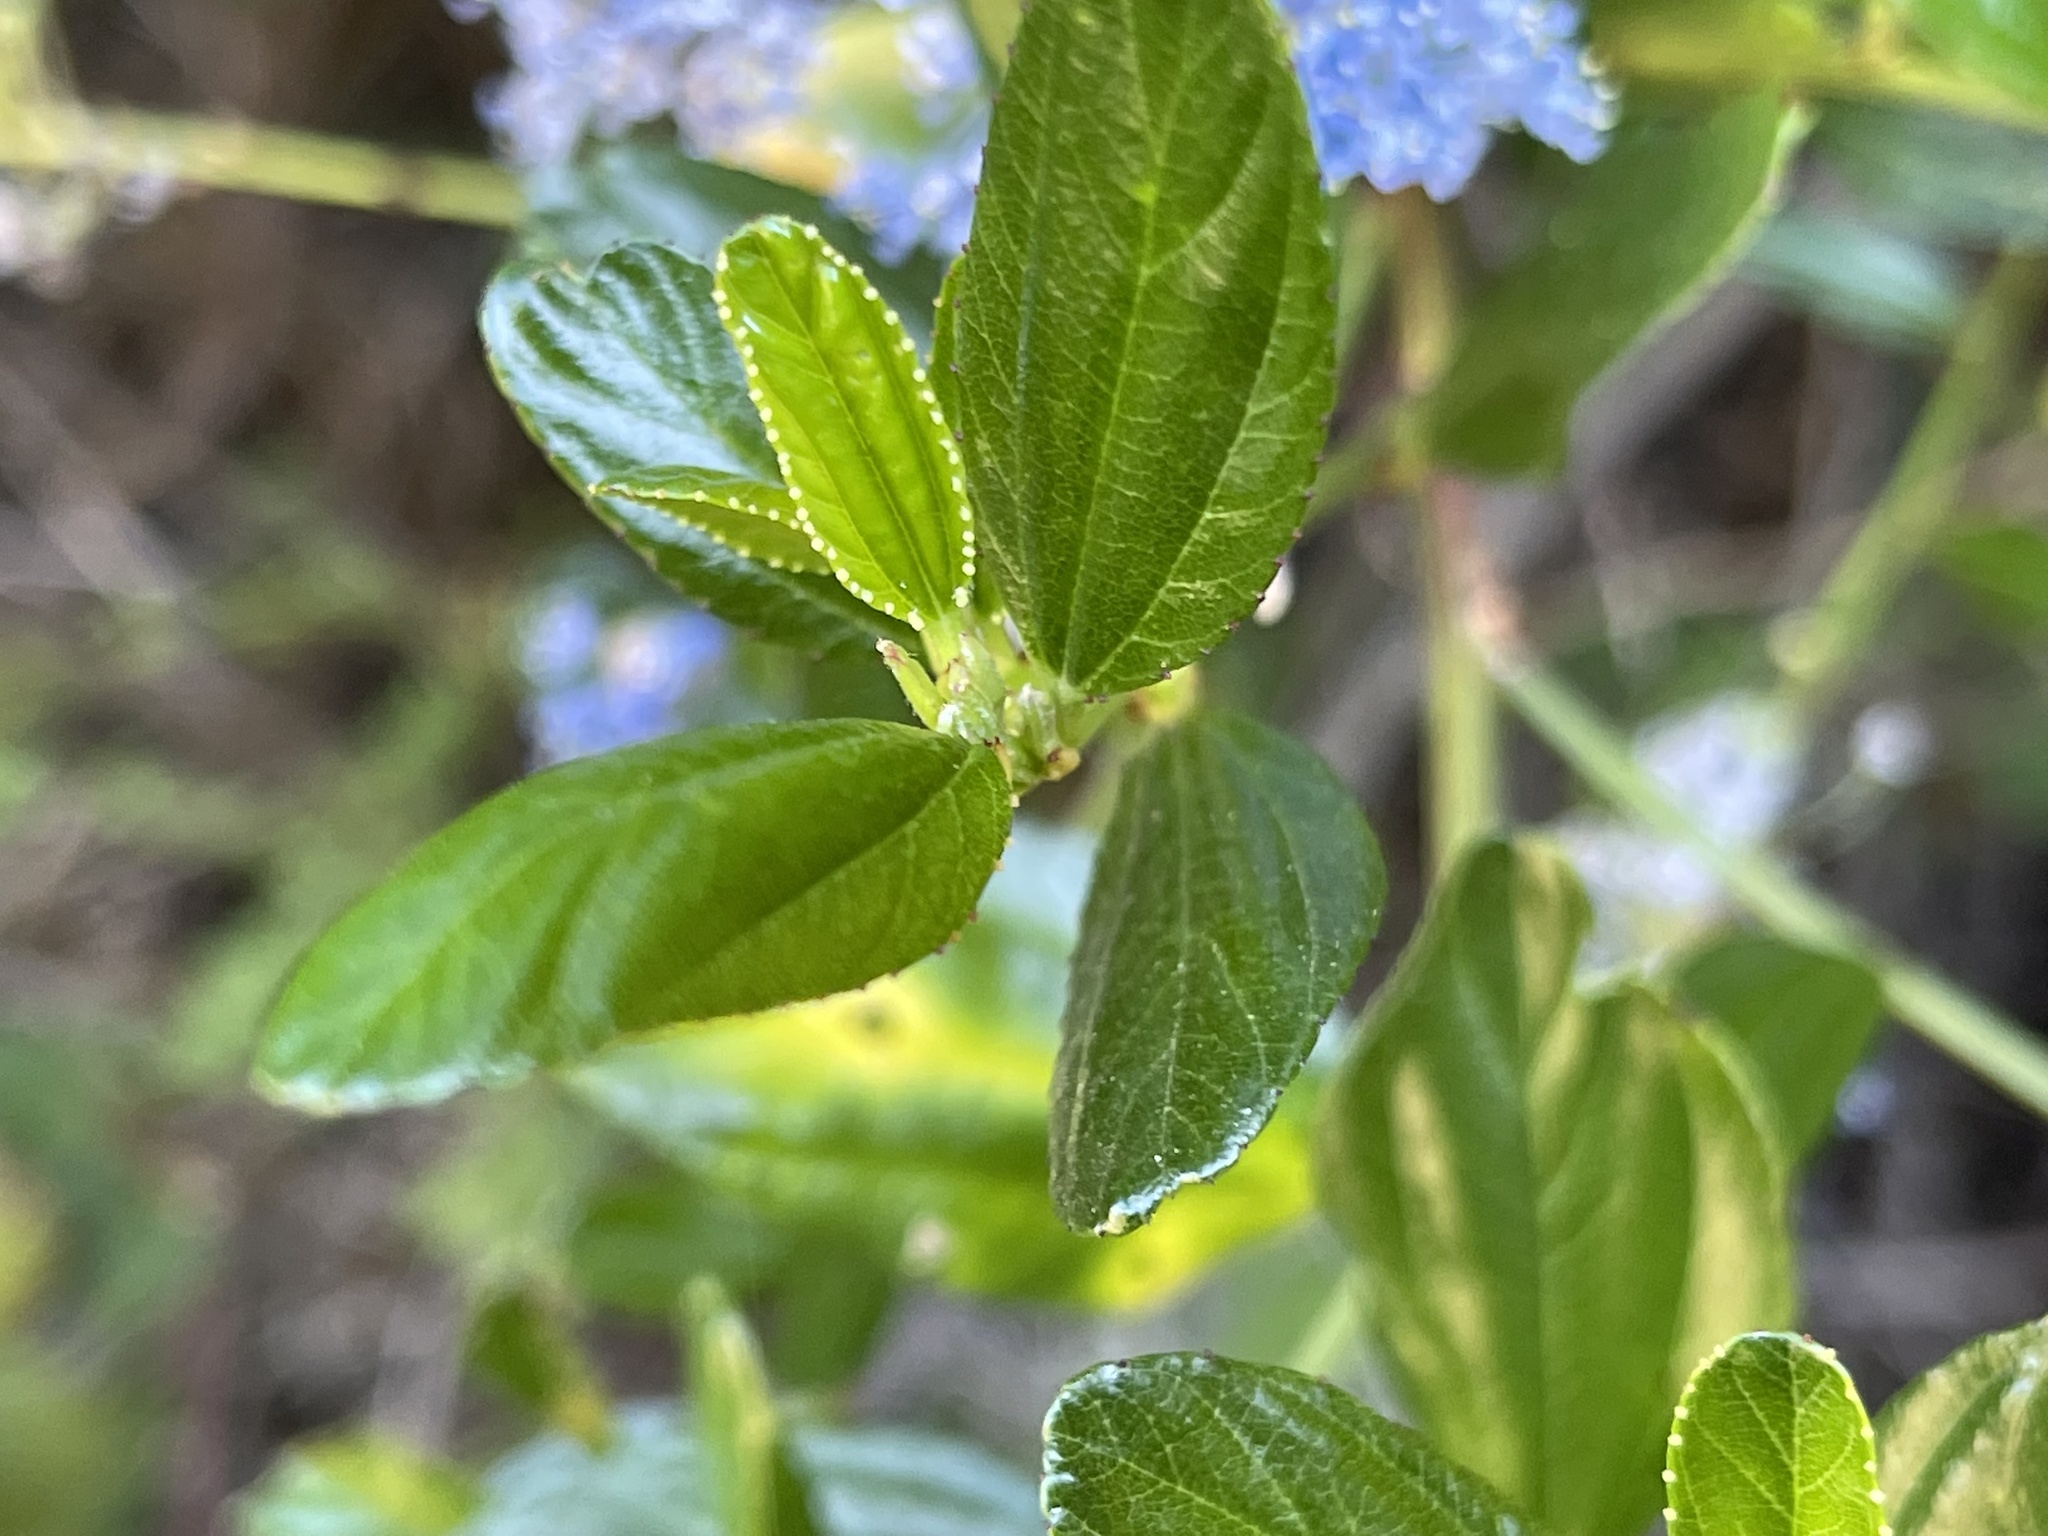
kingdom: Plantae
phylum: Tracheophyta
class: Magnoliopsida
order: Rosales
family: Rhamnaceae
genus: Ceanothus
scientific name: Ceanothus thyrsiflorus
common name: California-lilac
